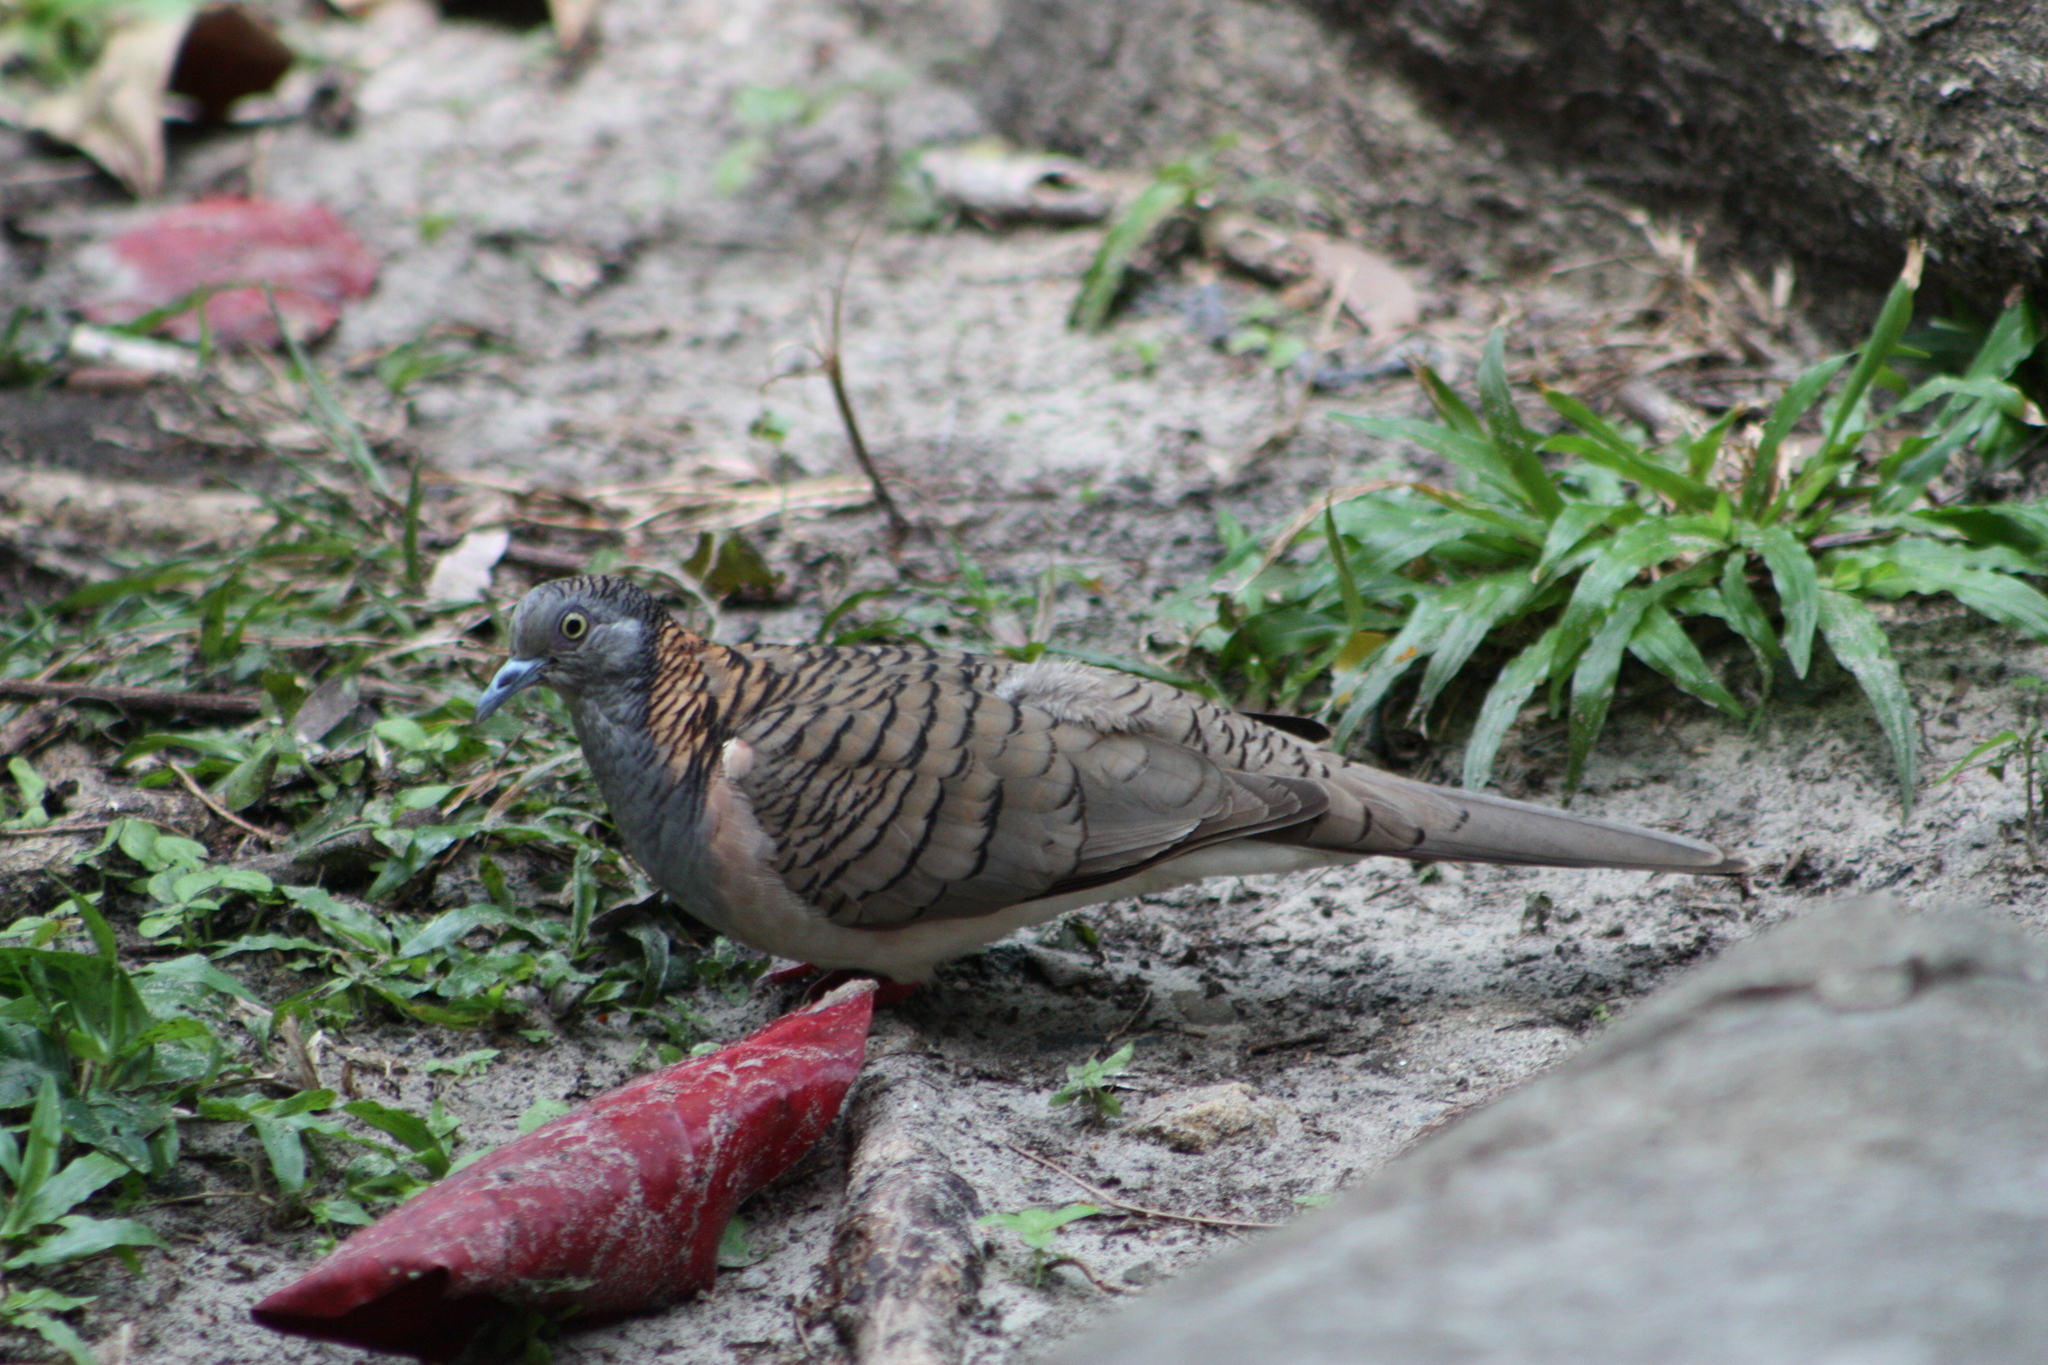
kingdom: Animalia
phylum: Chordata
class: Aves
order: Columbiformes
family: Columbidae
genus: Geopelia
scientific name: Geopelia humeralis
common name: Bar-shouldered dove
